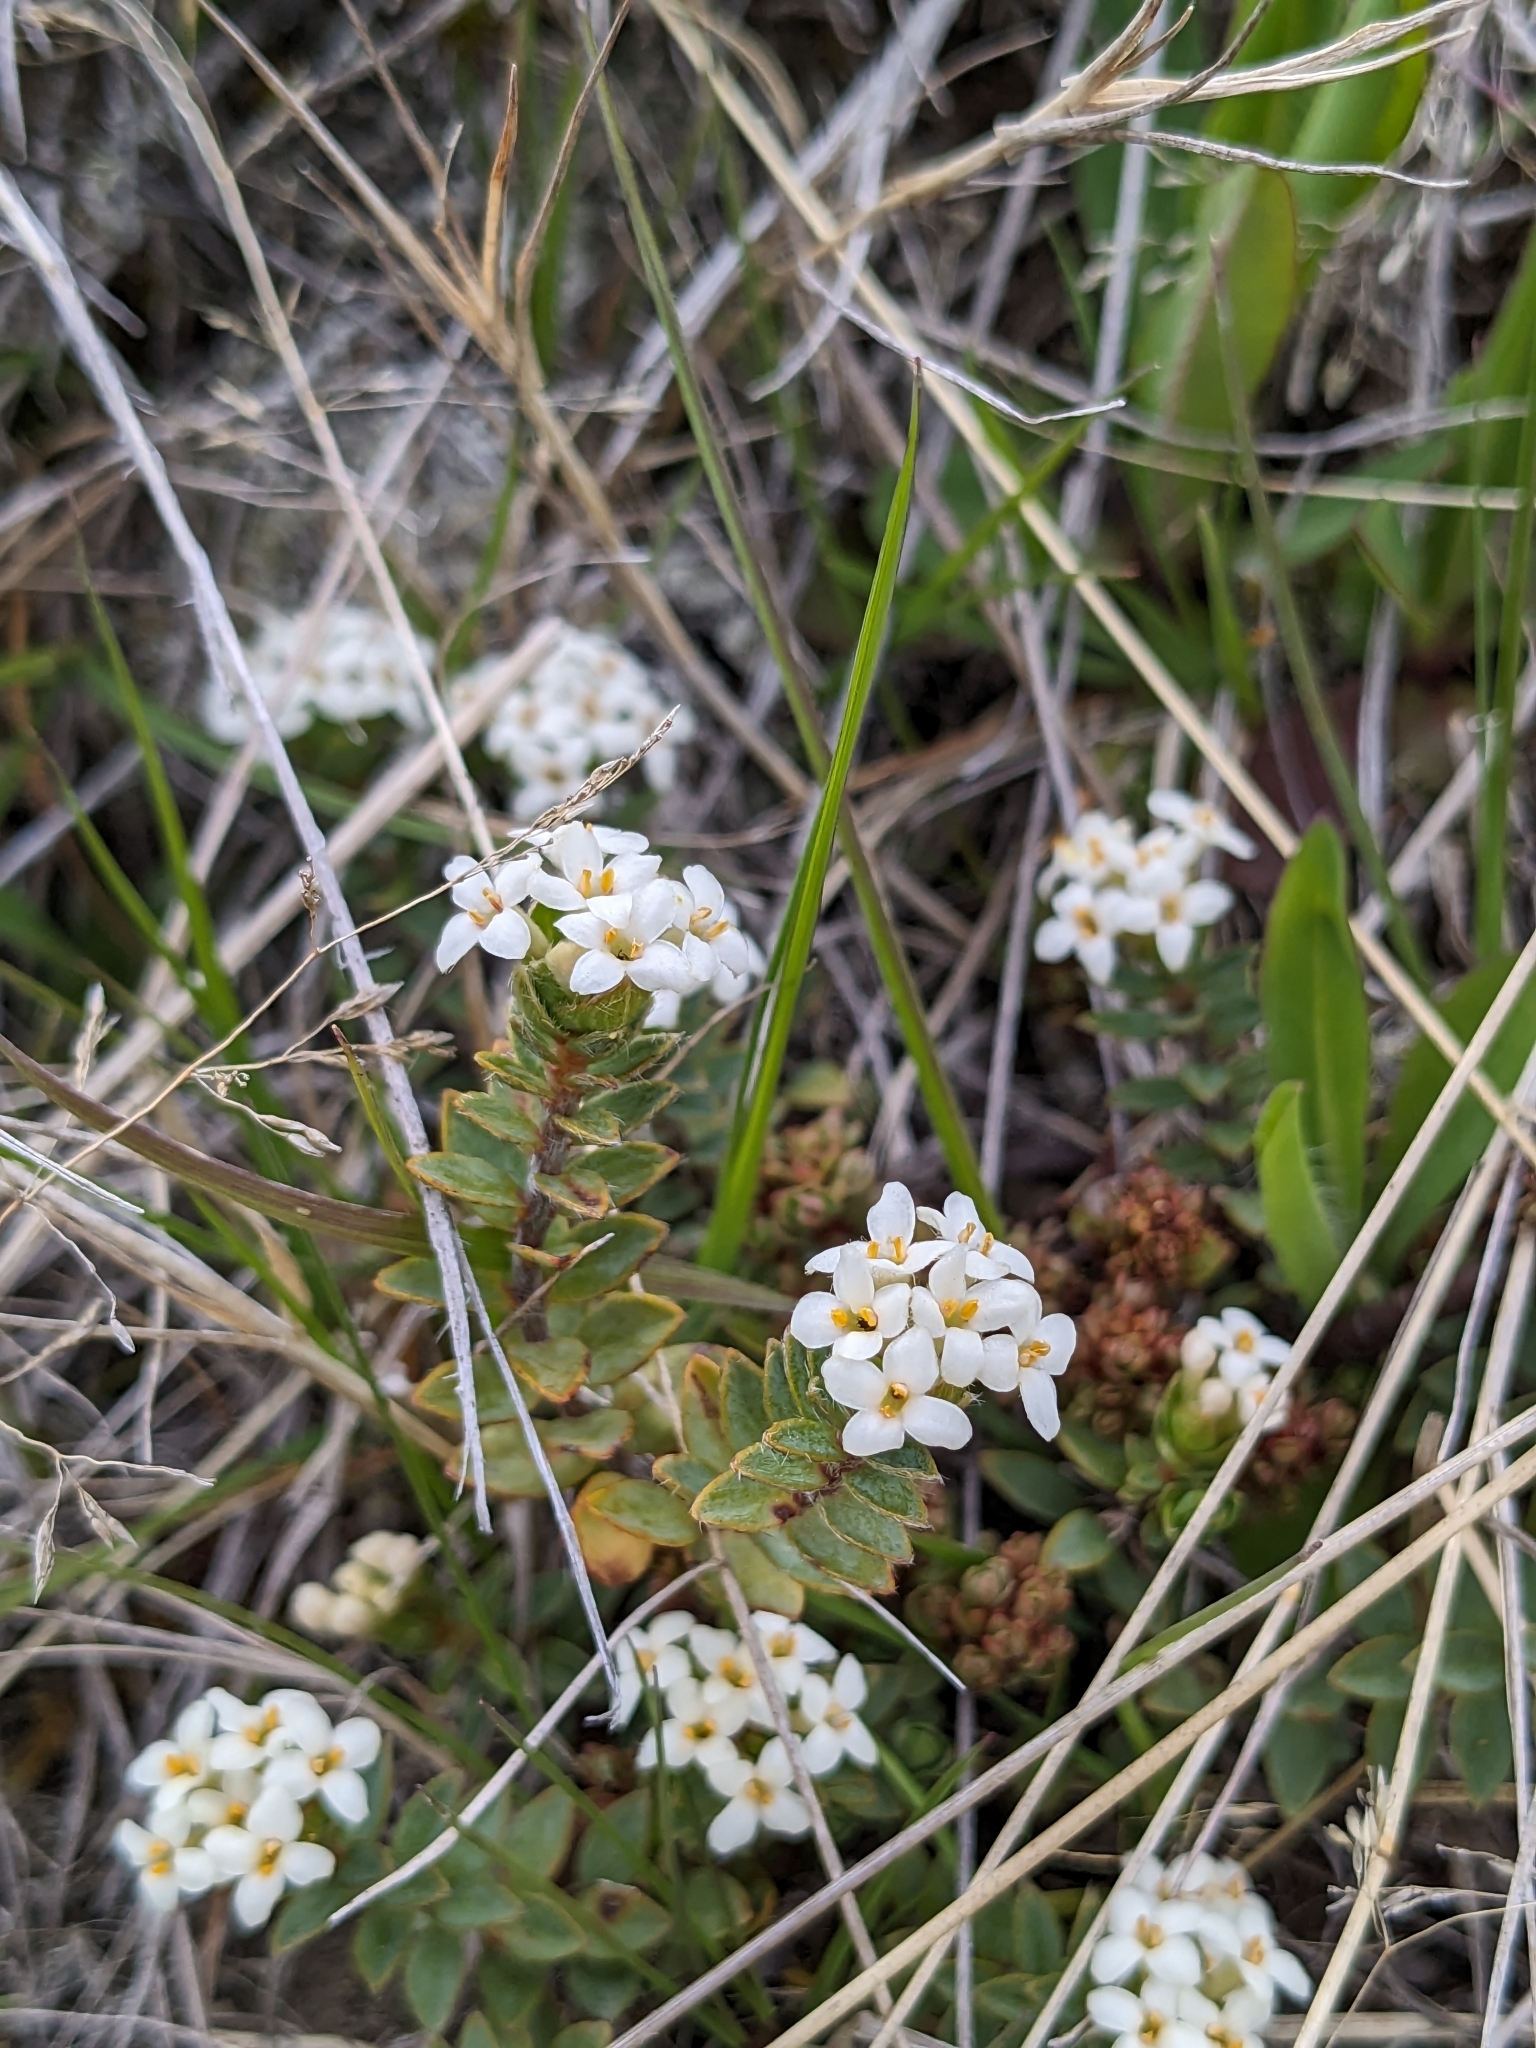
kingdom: Plantae
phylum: Tracheophyta
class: Magnoliopsida
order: Malvales
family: Thymelaeaceae
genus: Pimelea
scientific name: Pimelea oreophila
